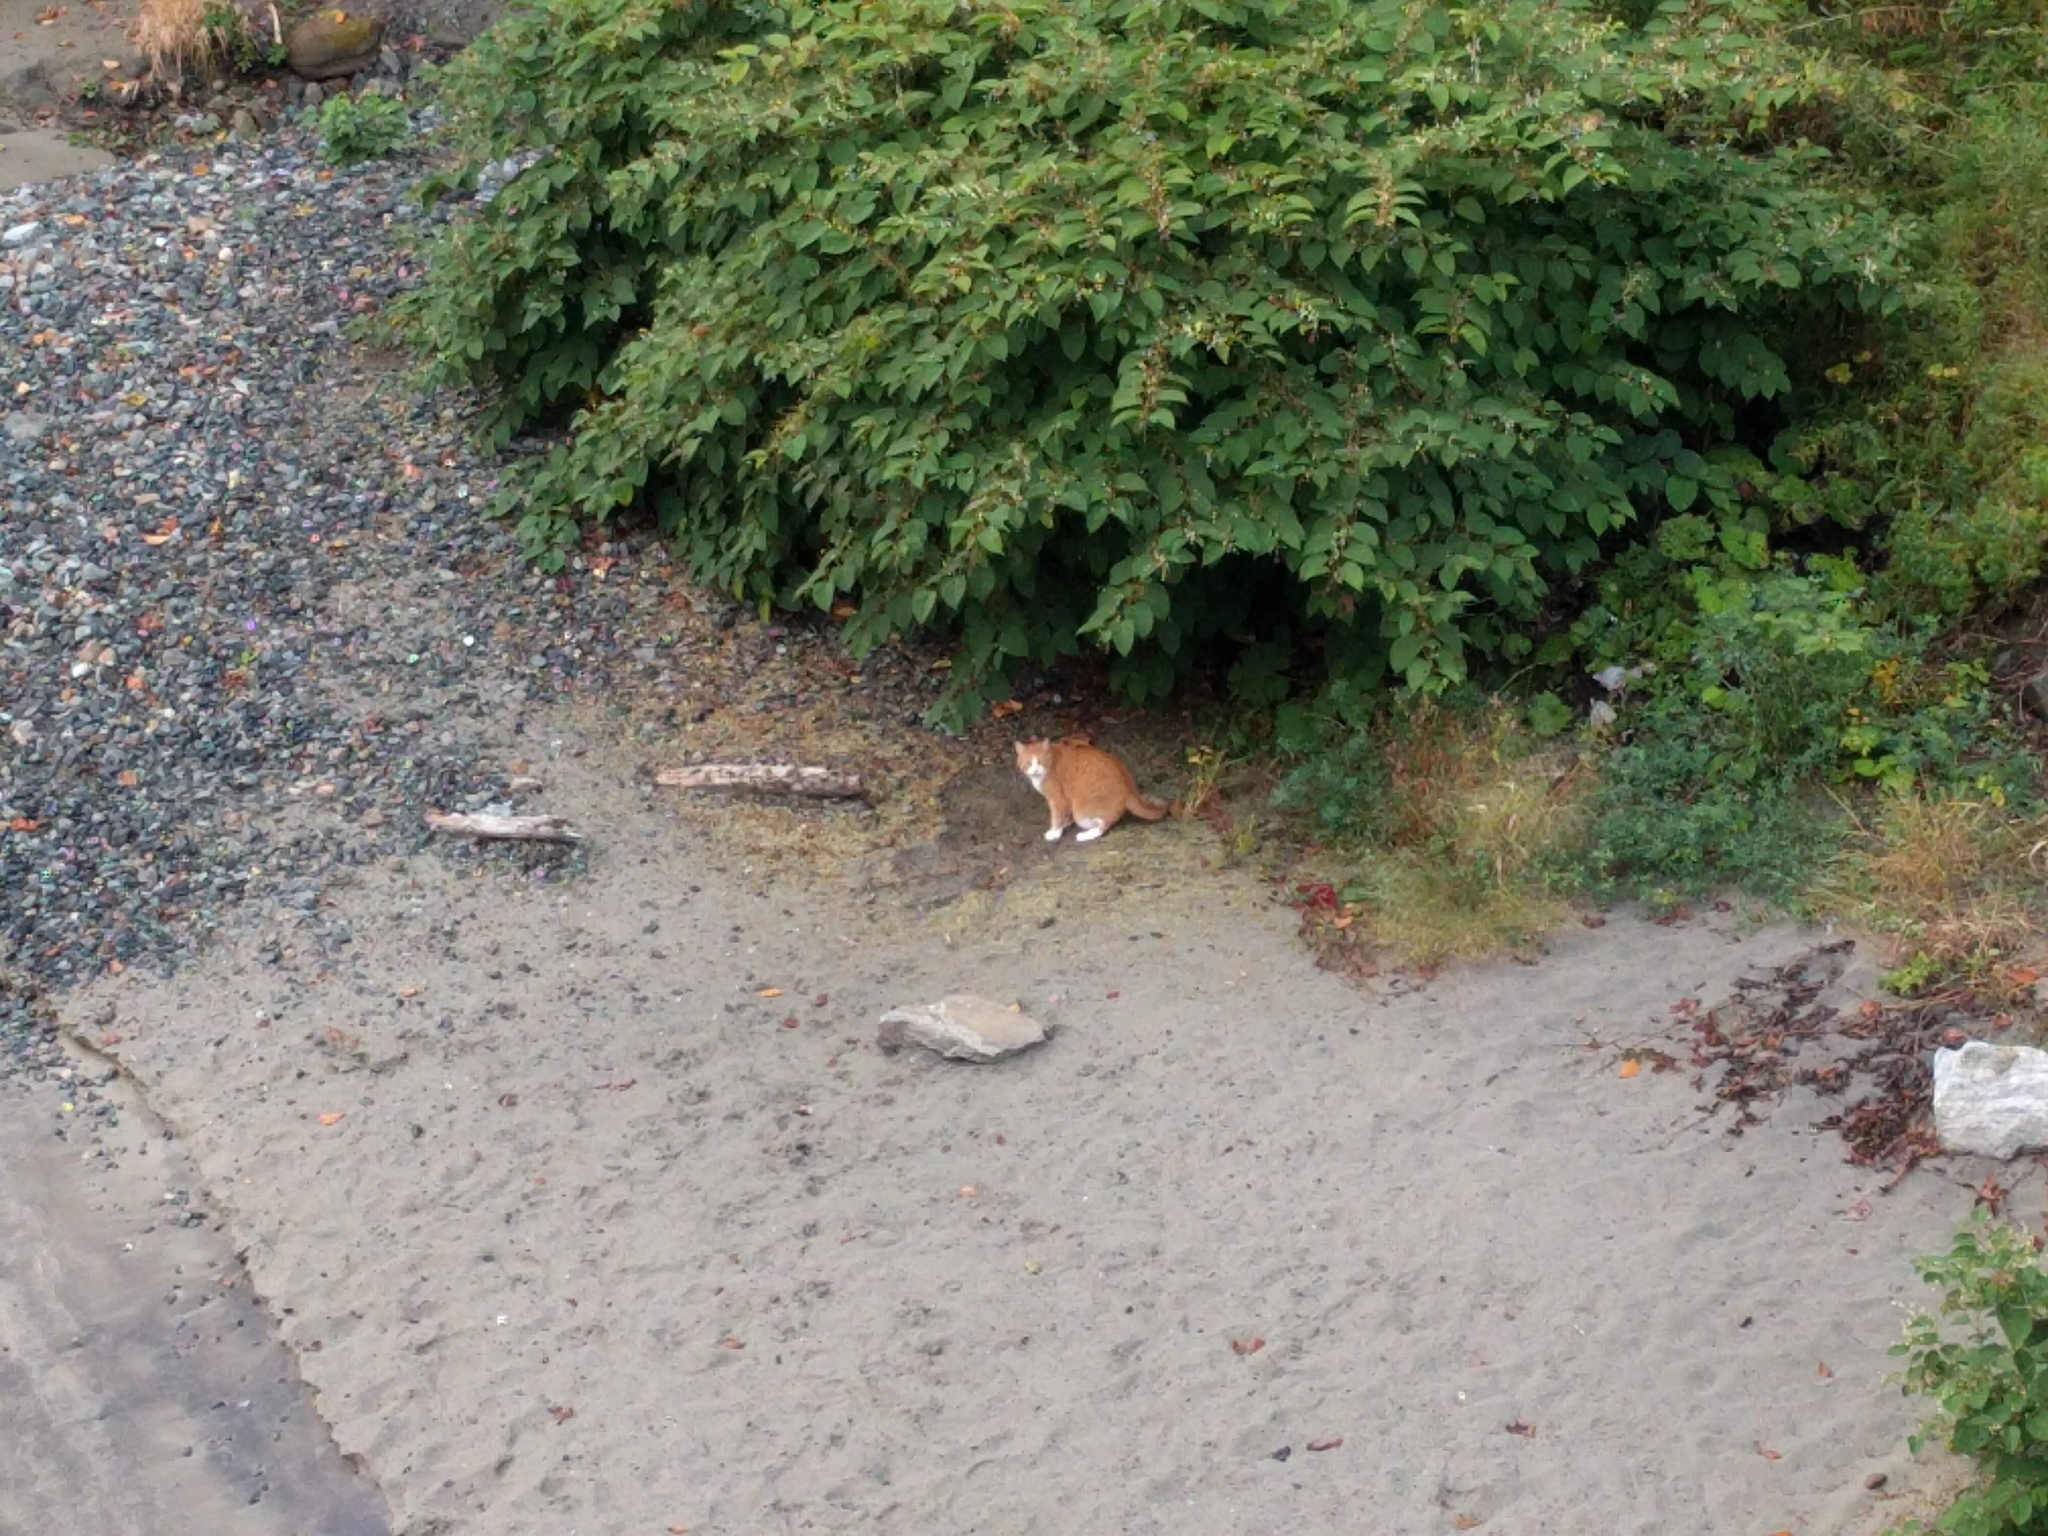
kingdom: Animalia
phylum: Chordata
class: Mammalia
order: Carnivora
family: Felidae
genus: Felis
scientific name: Felis catus
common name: Domestic cat
